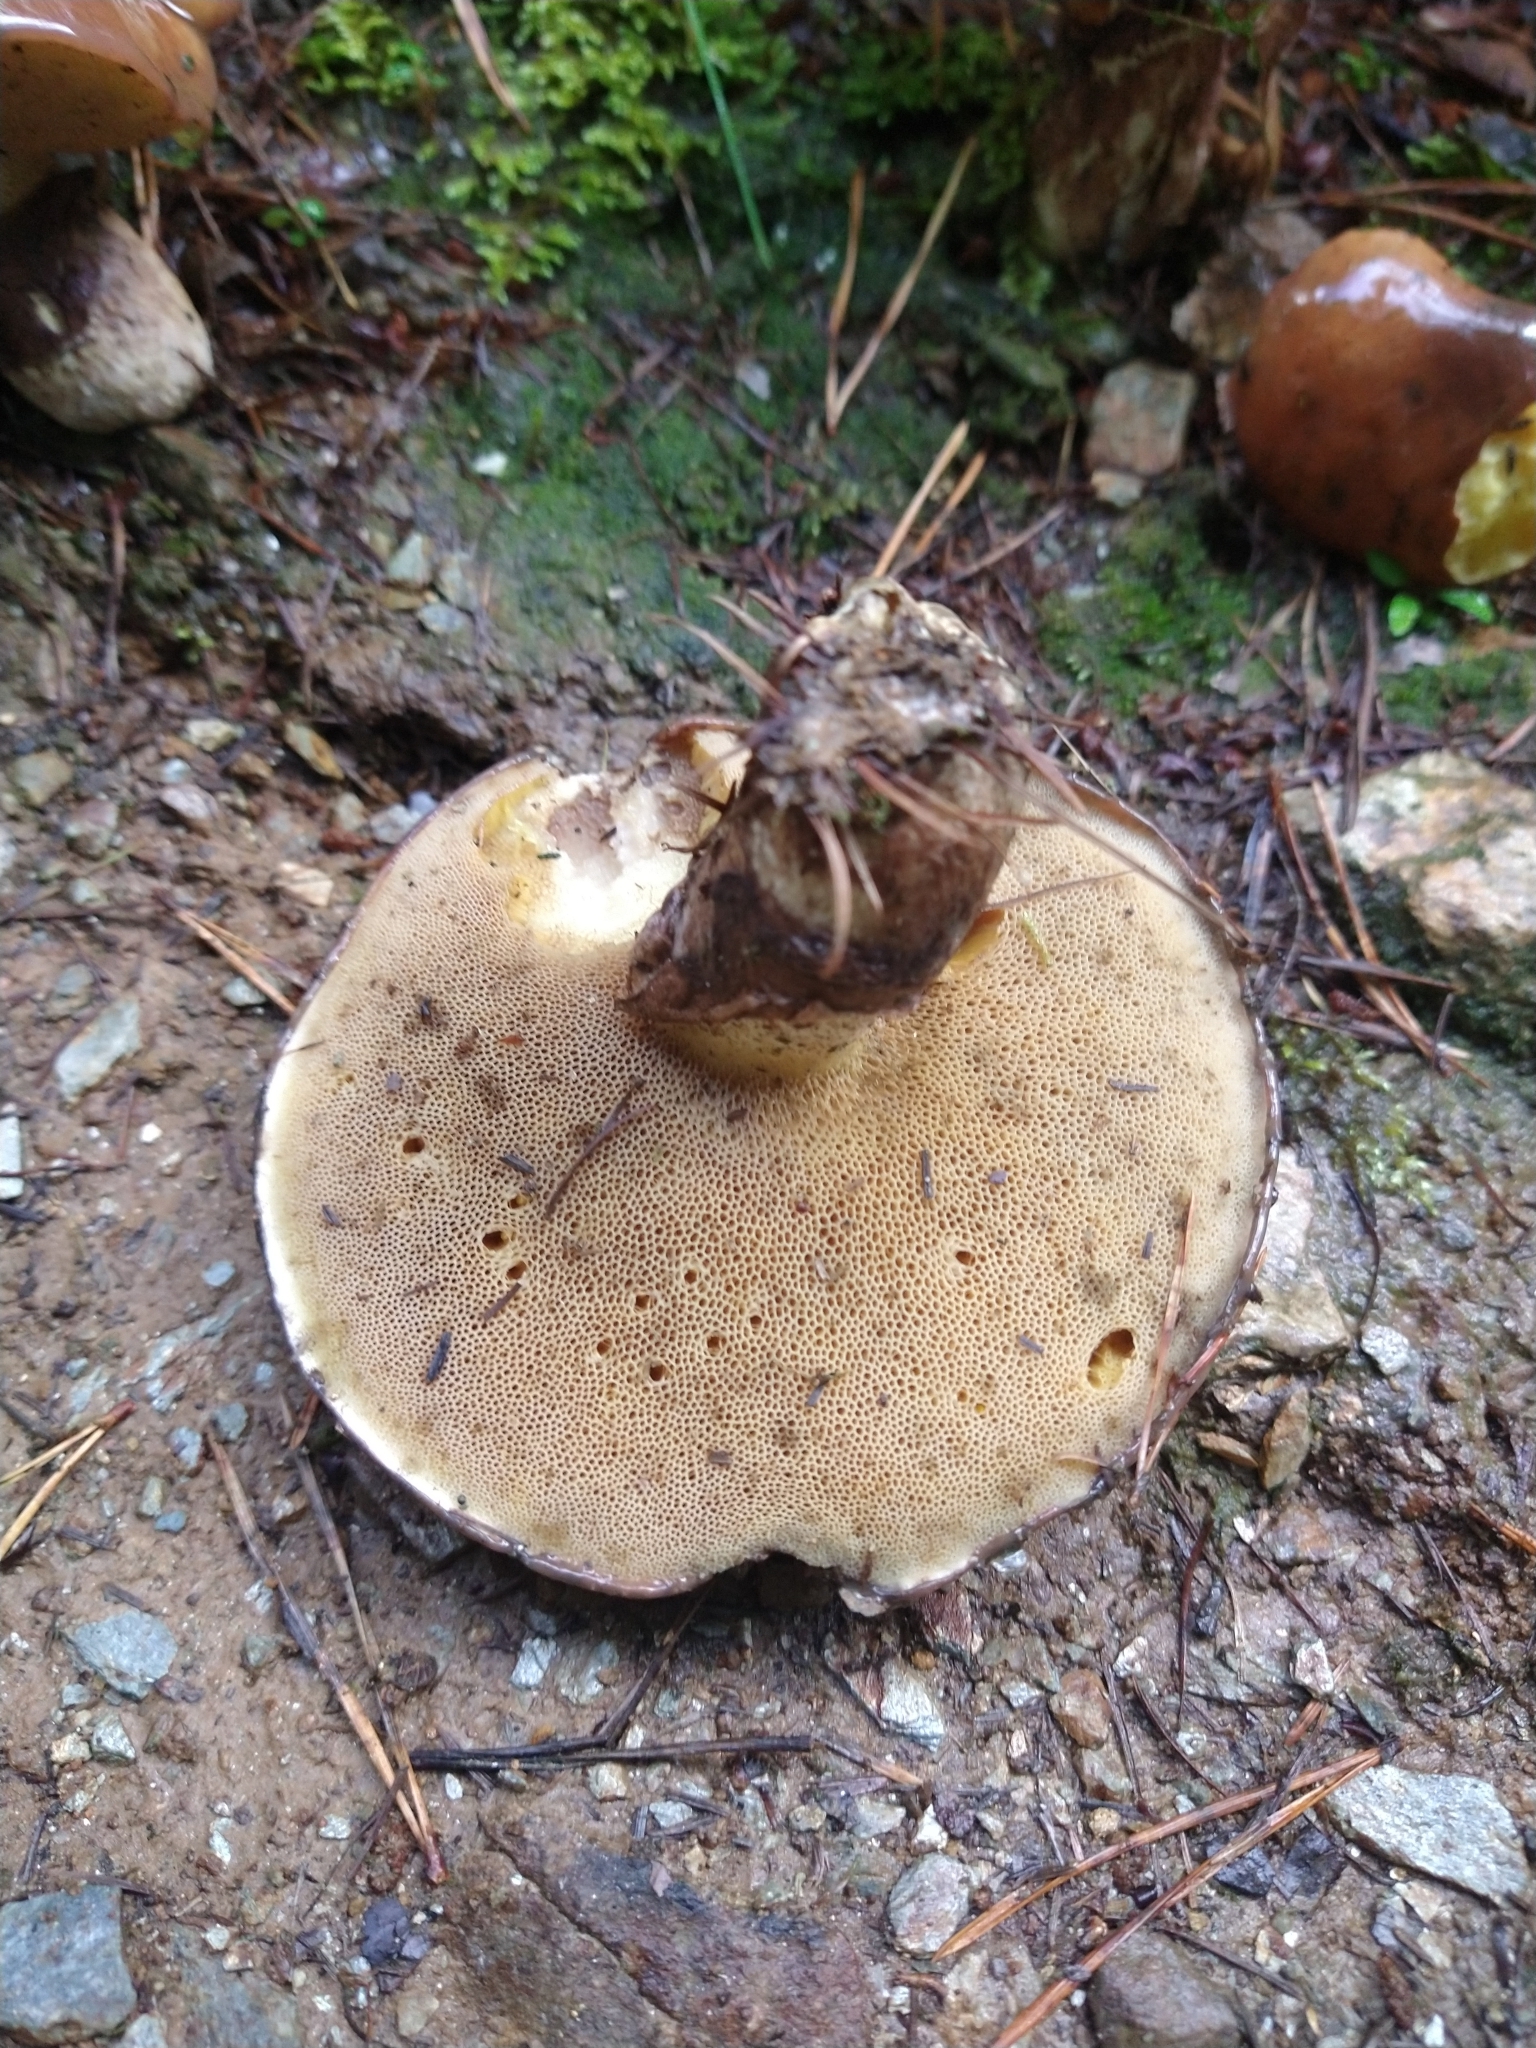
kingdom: Fungi
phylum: Basidiomycota
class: Agaricomycetes
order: Boletales
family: Suillaceae
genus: Suillus
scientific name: Suillus luteus
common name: Slippery jack
